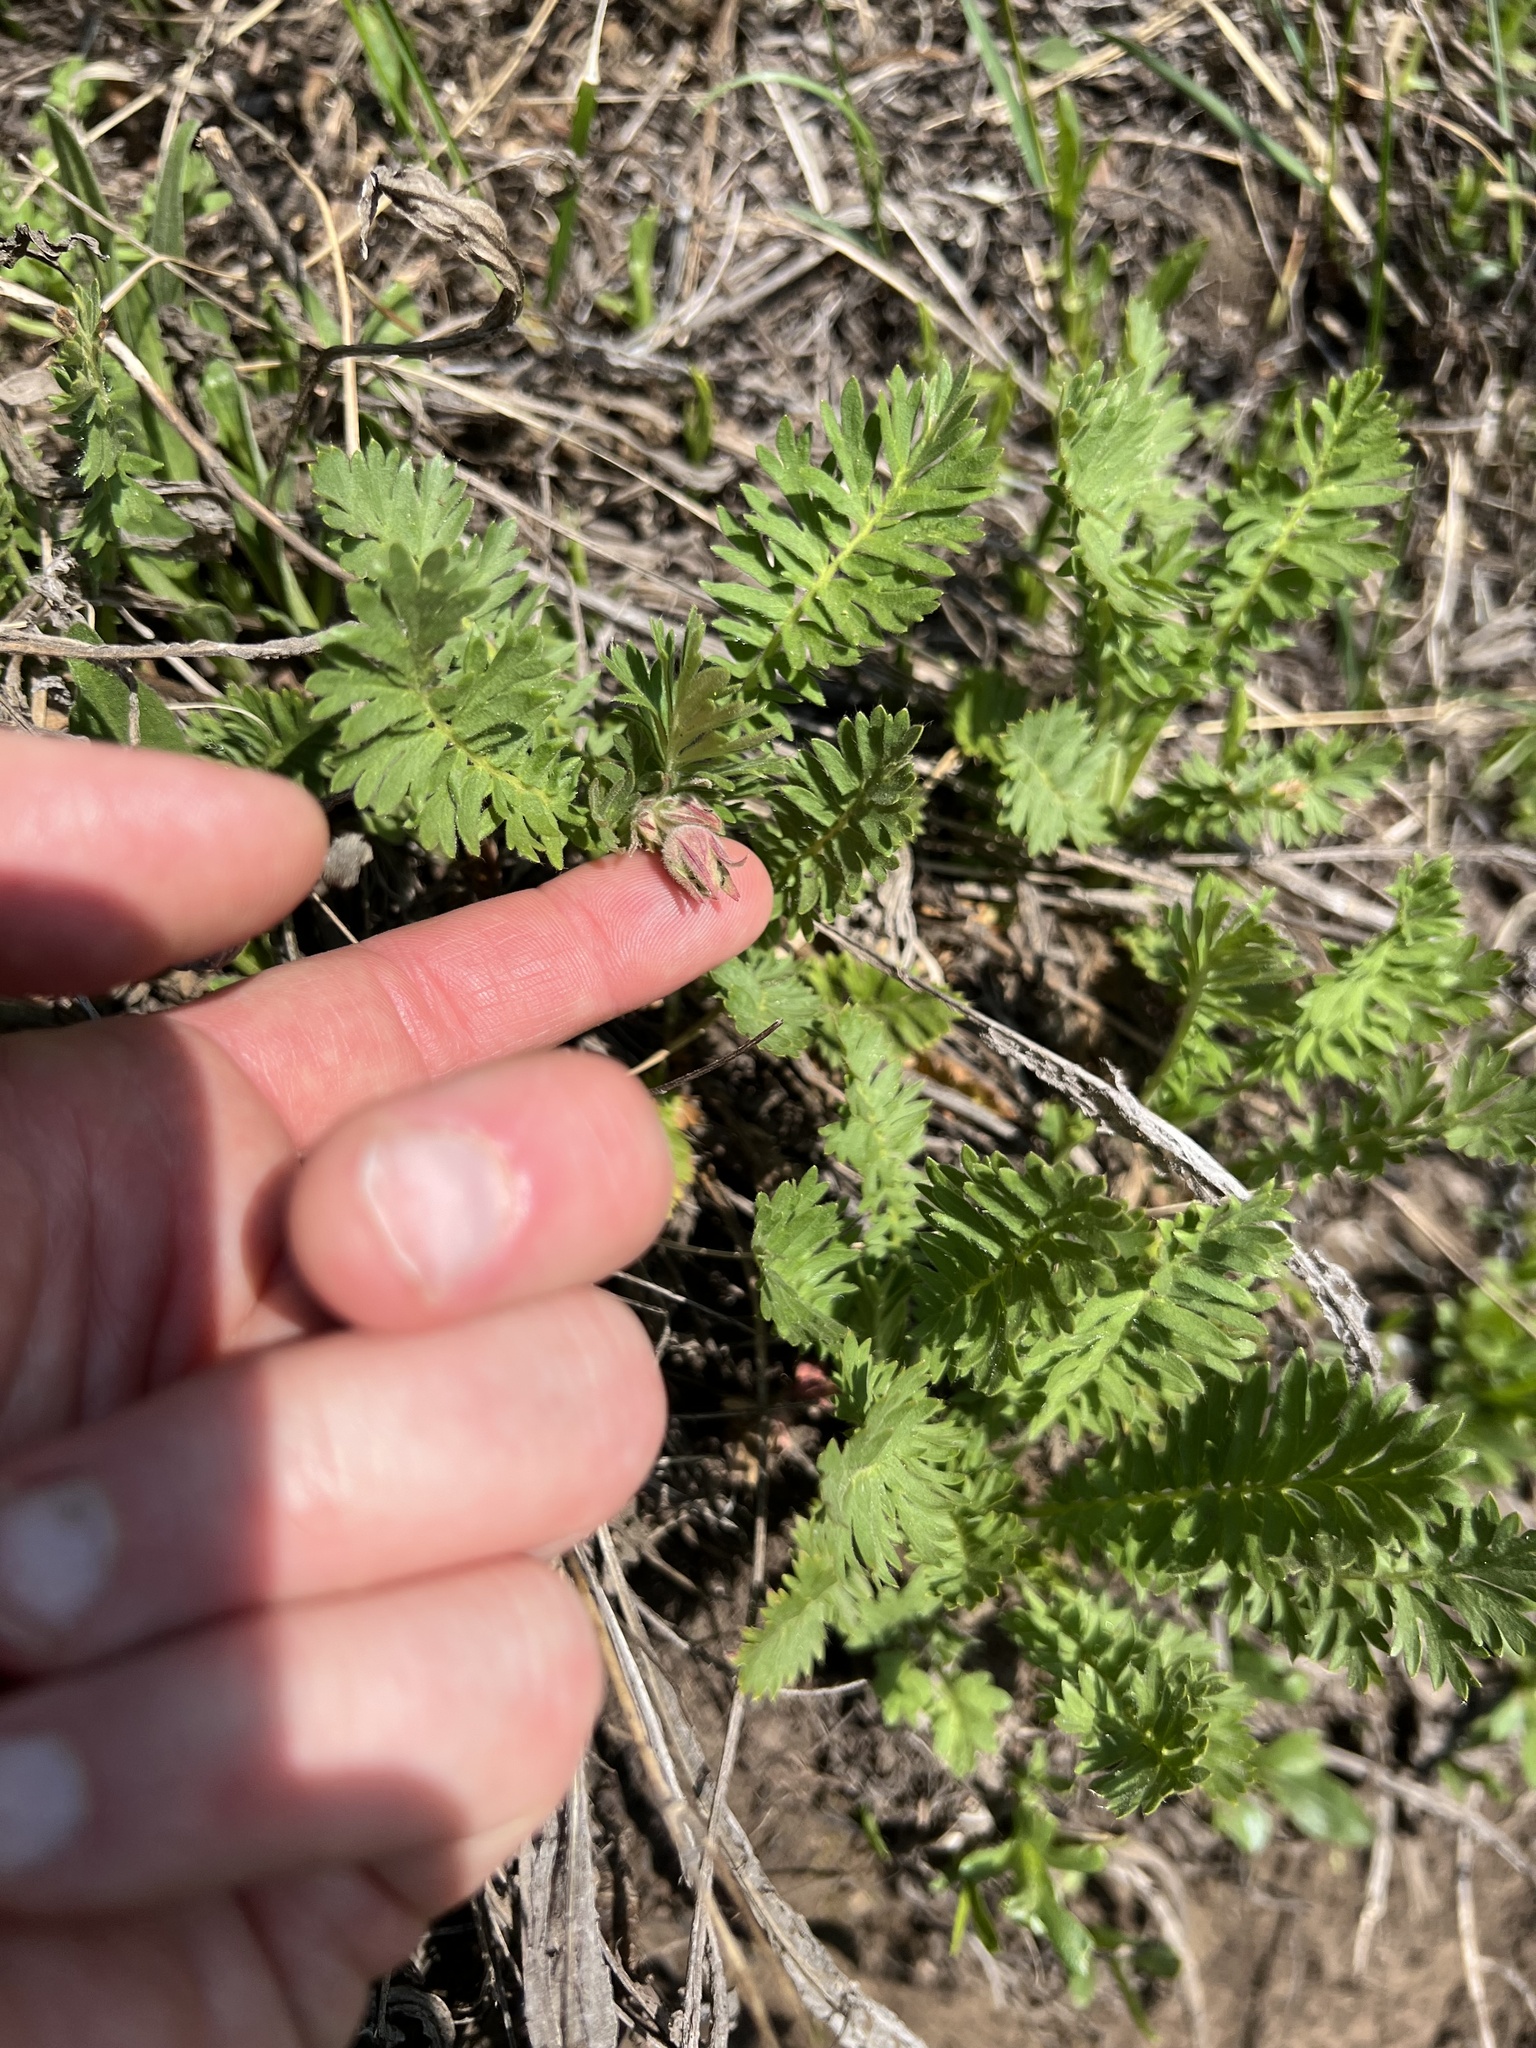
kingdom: Plantae
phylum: Tracheophyta
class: Magnoliopsida
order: Rosales
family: Rosaceae
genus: Geum
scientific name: Geum triflorum
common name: Old man's whiskers
